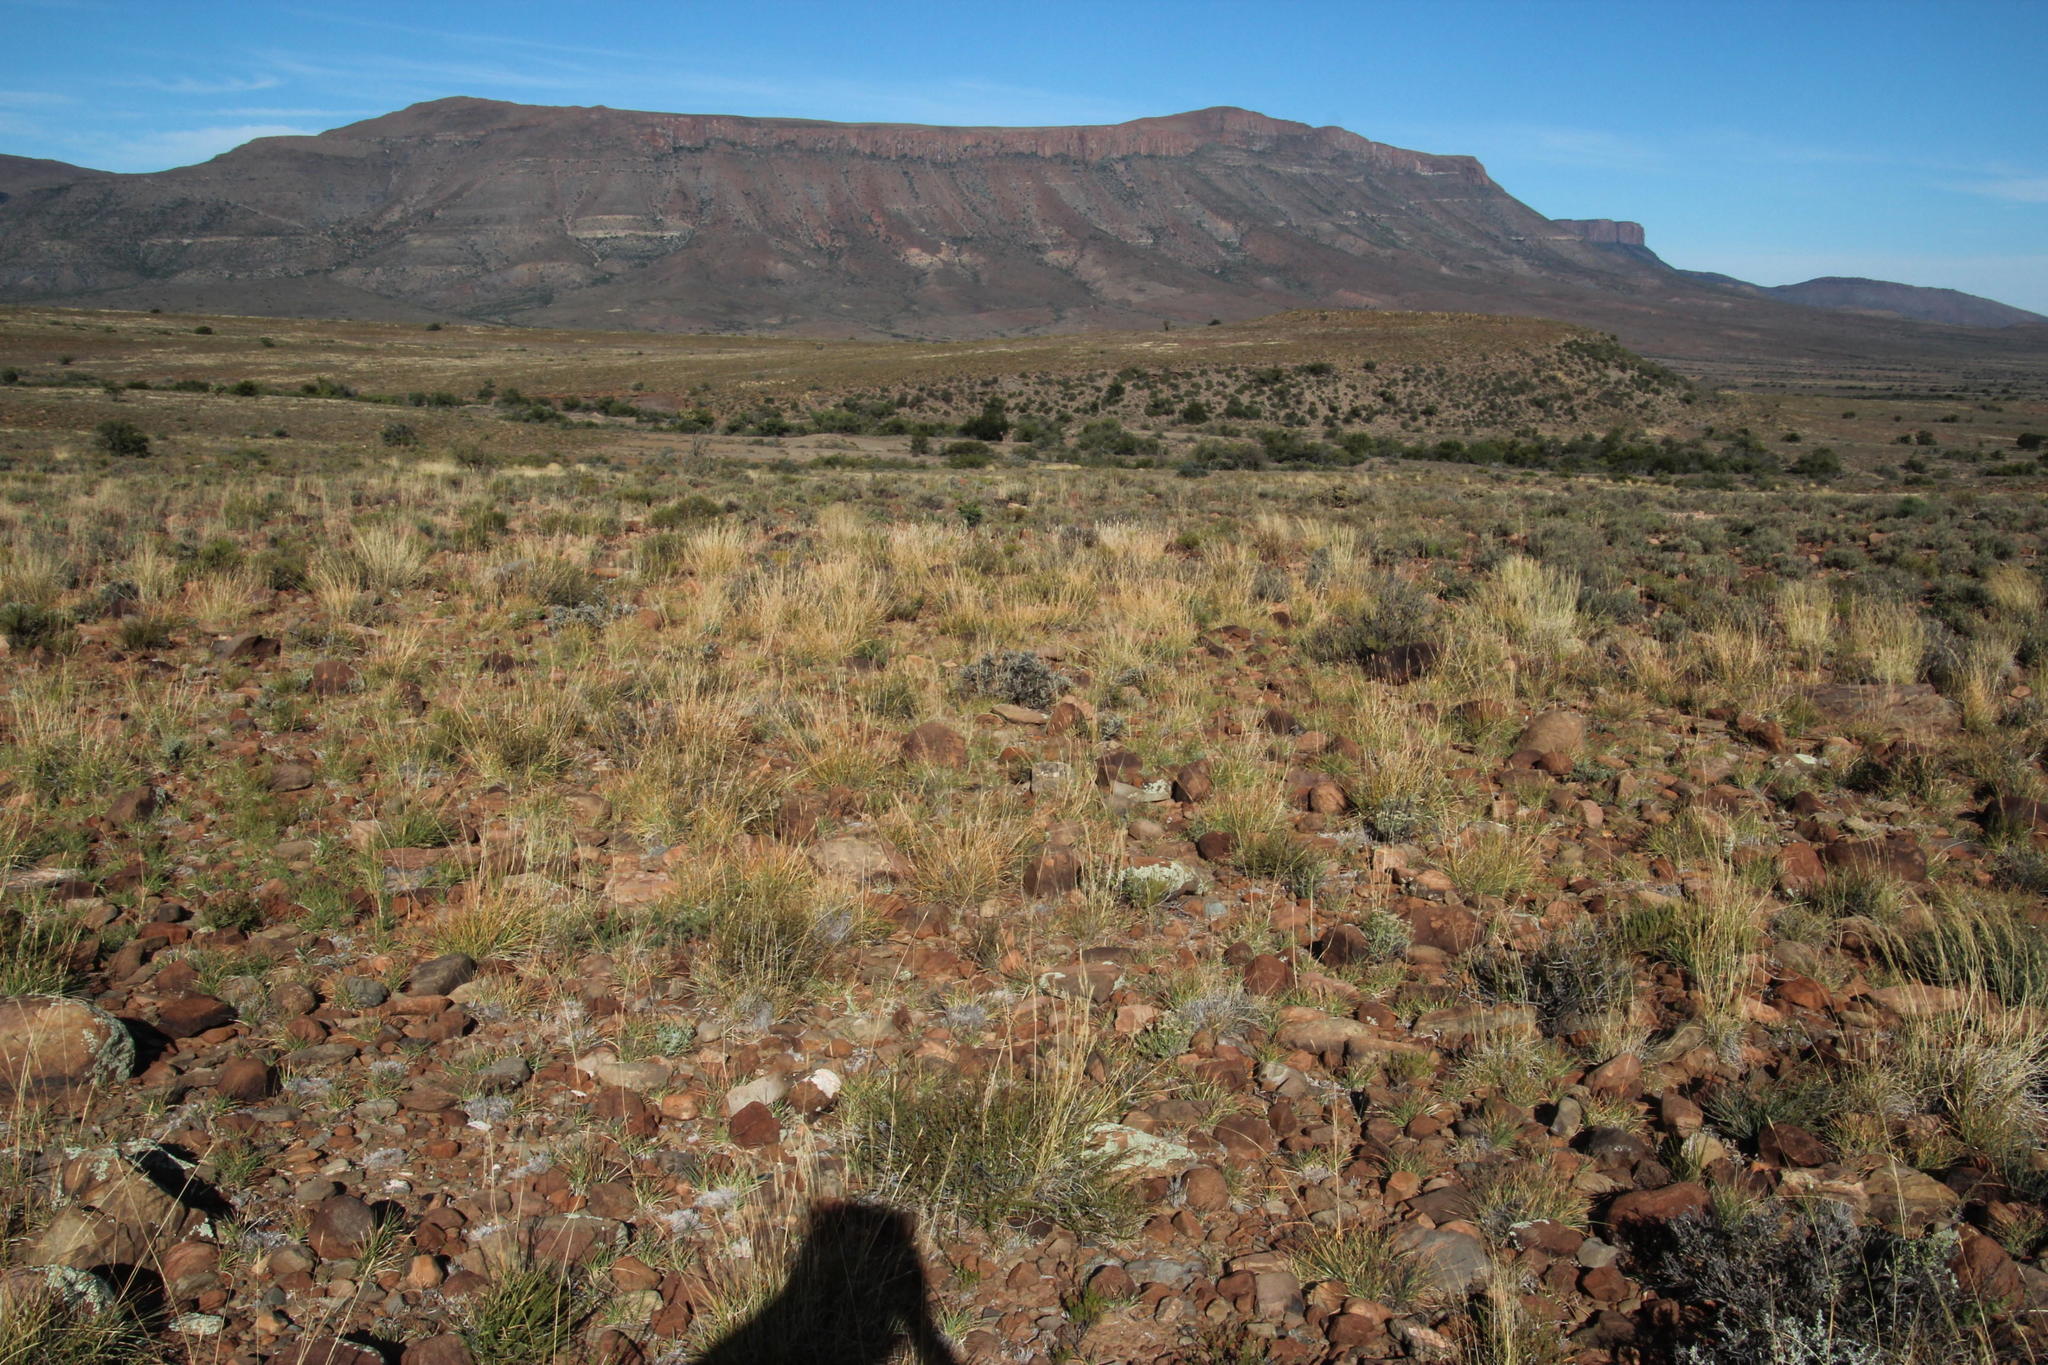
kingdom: Plantae
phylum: Tracheophyta
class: Liliopsida
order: Poales
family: Poaceae
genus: Heteropogon
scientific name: Heteropogon contortus
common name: Tanglehead
